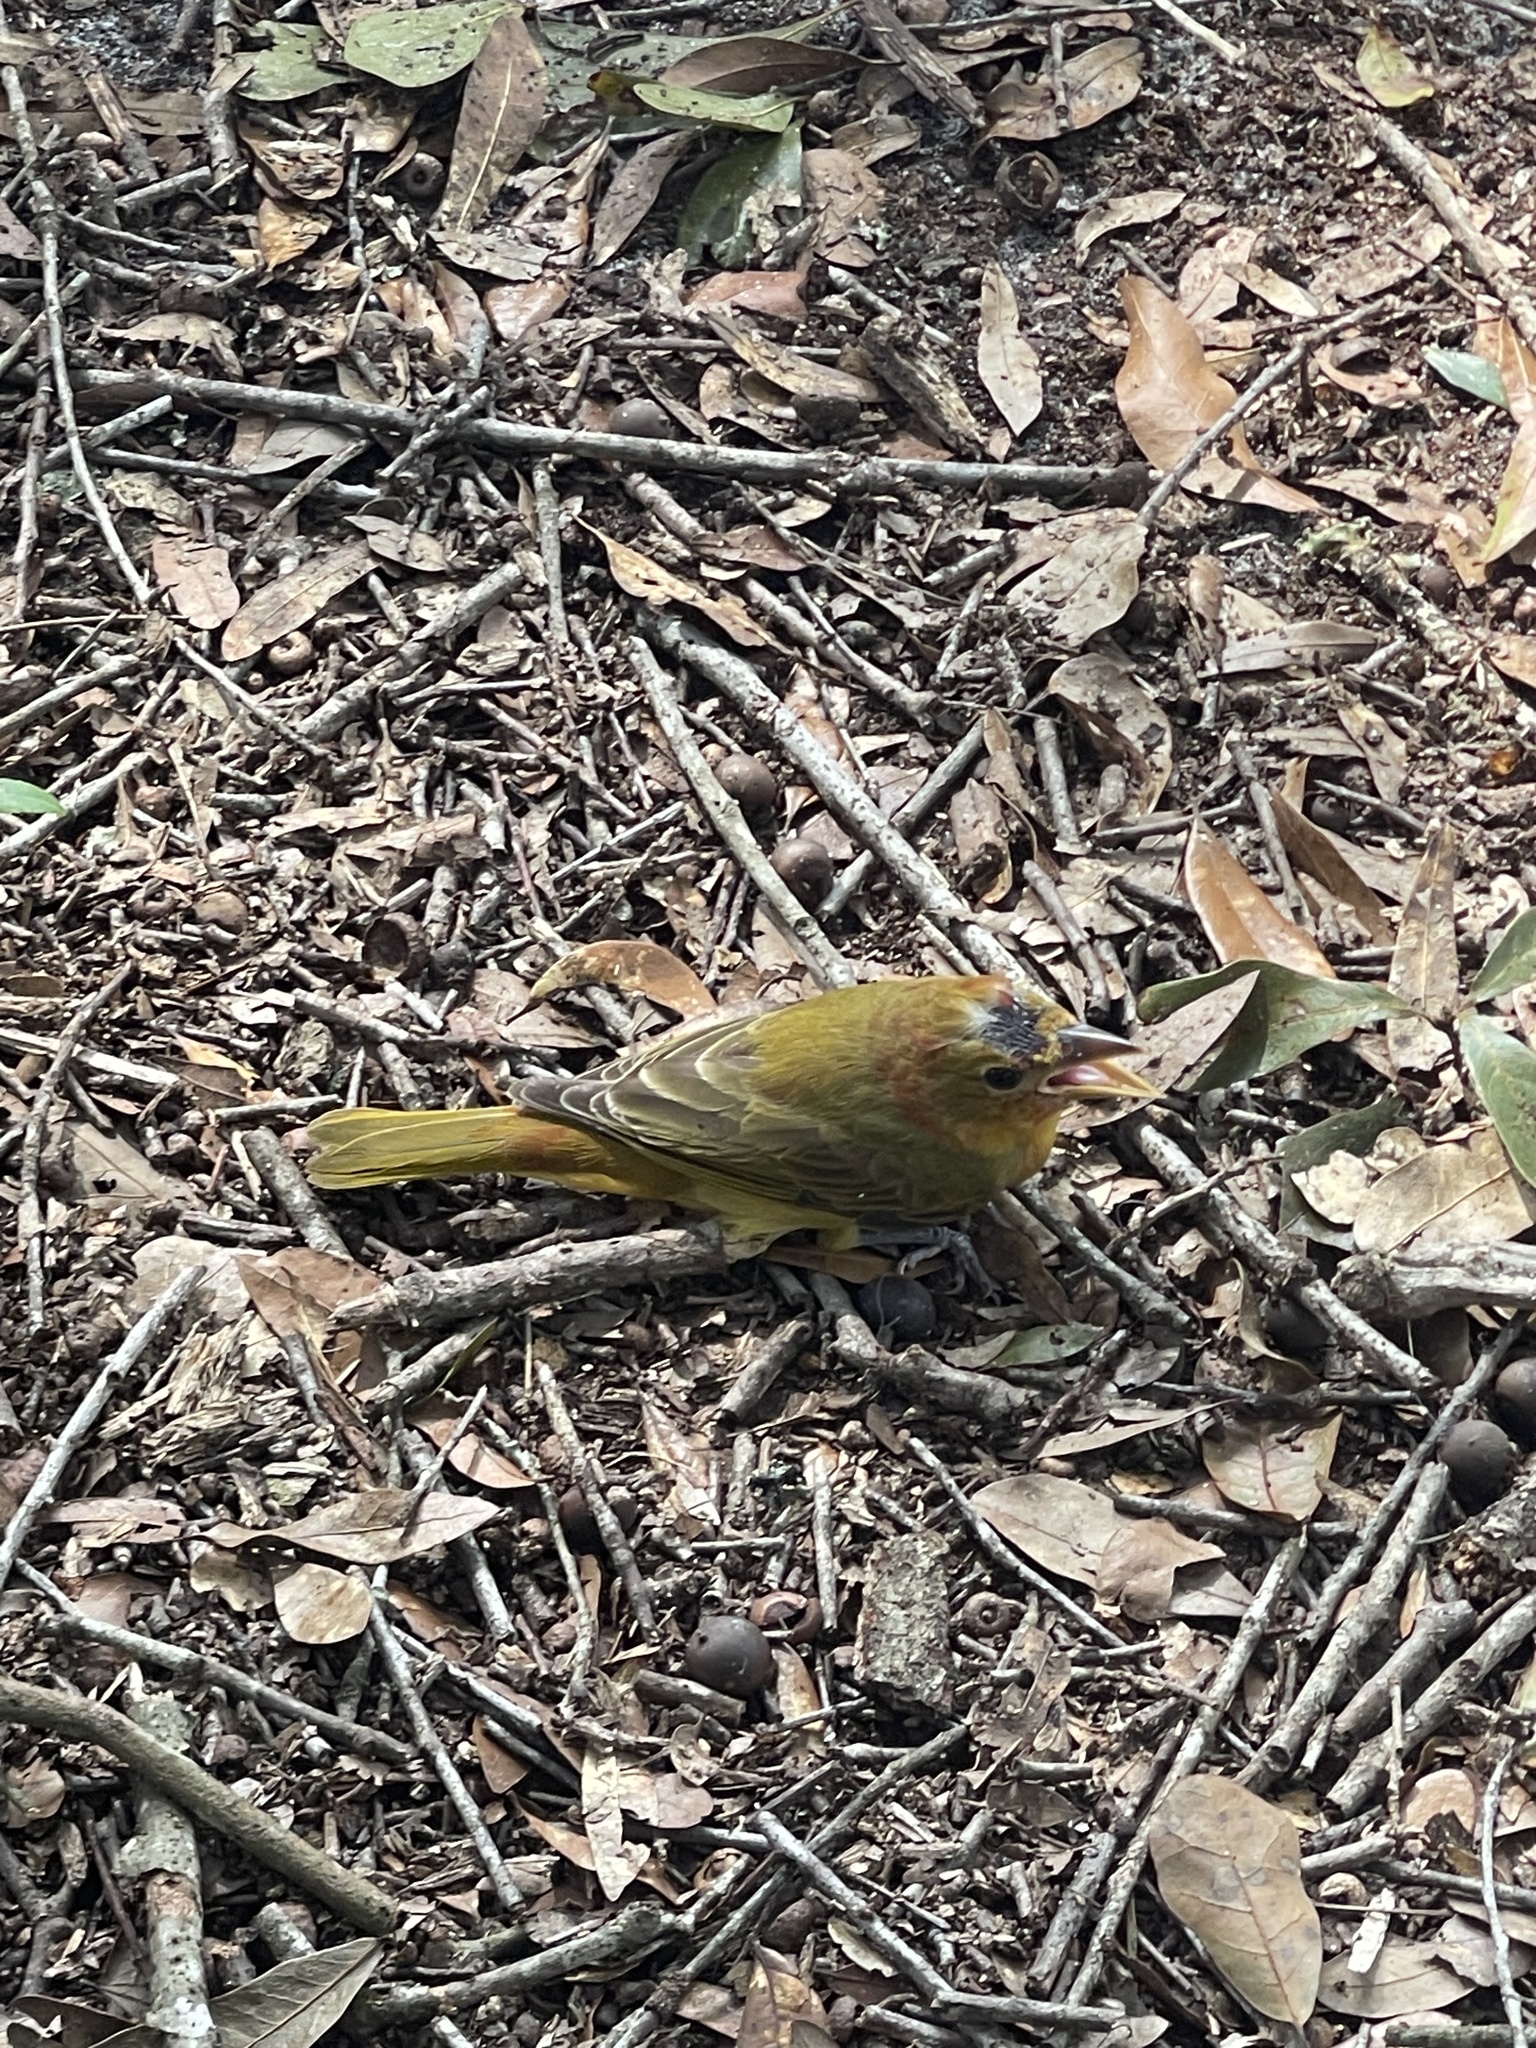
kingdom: Animalia
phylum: Chordata
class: Aves
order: Passeriformes
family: Cardinalidae
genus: Piranga
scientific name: Piranga rubra
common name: Summer tanager
